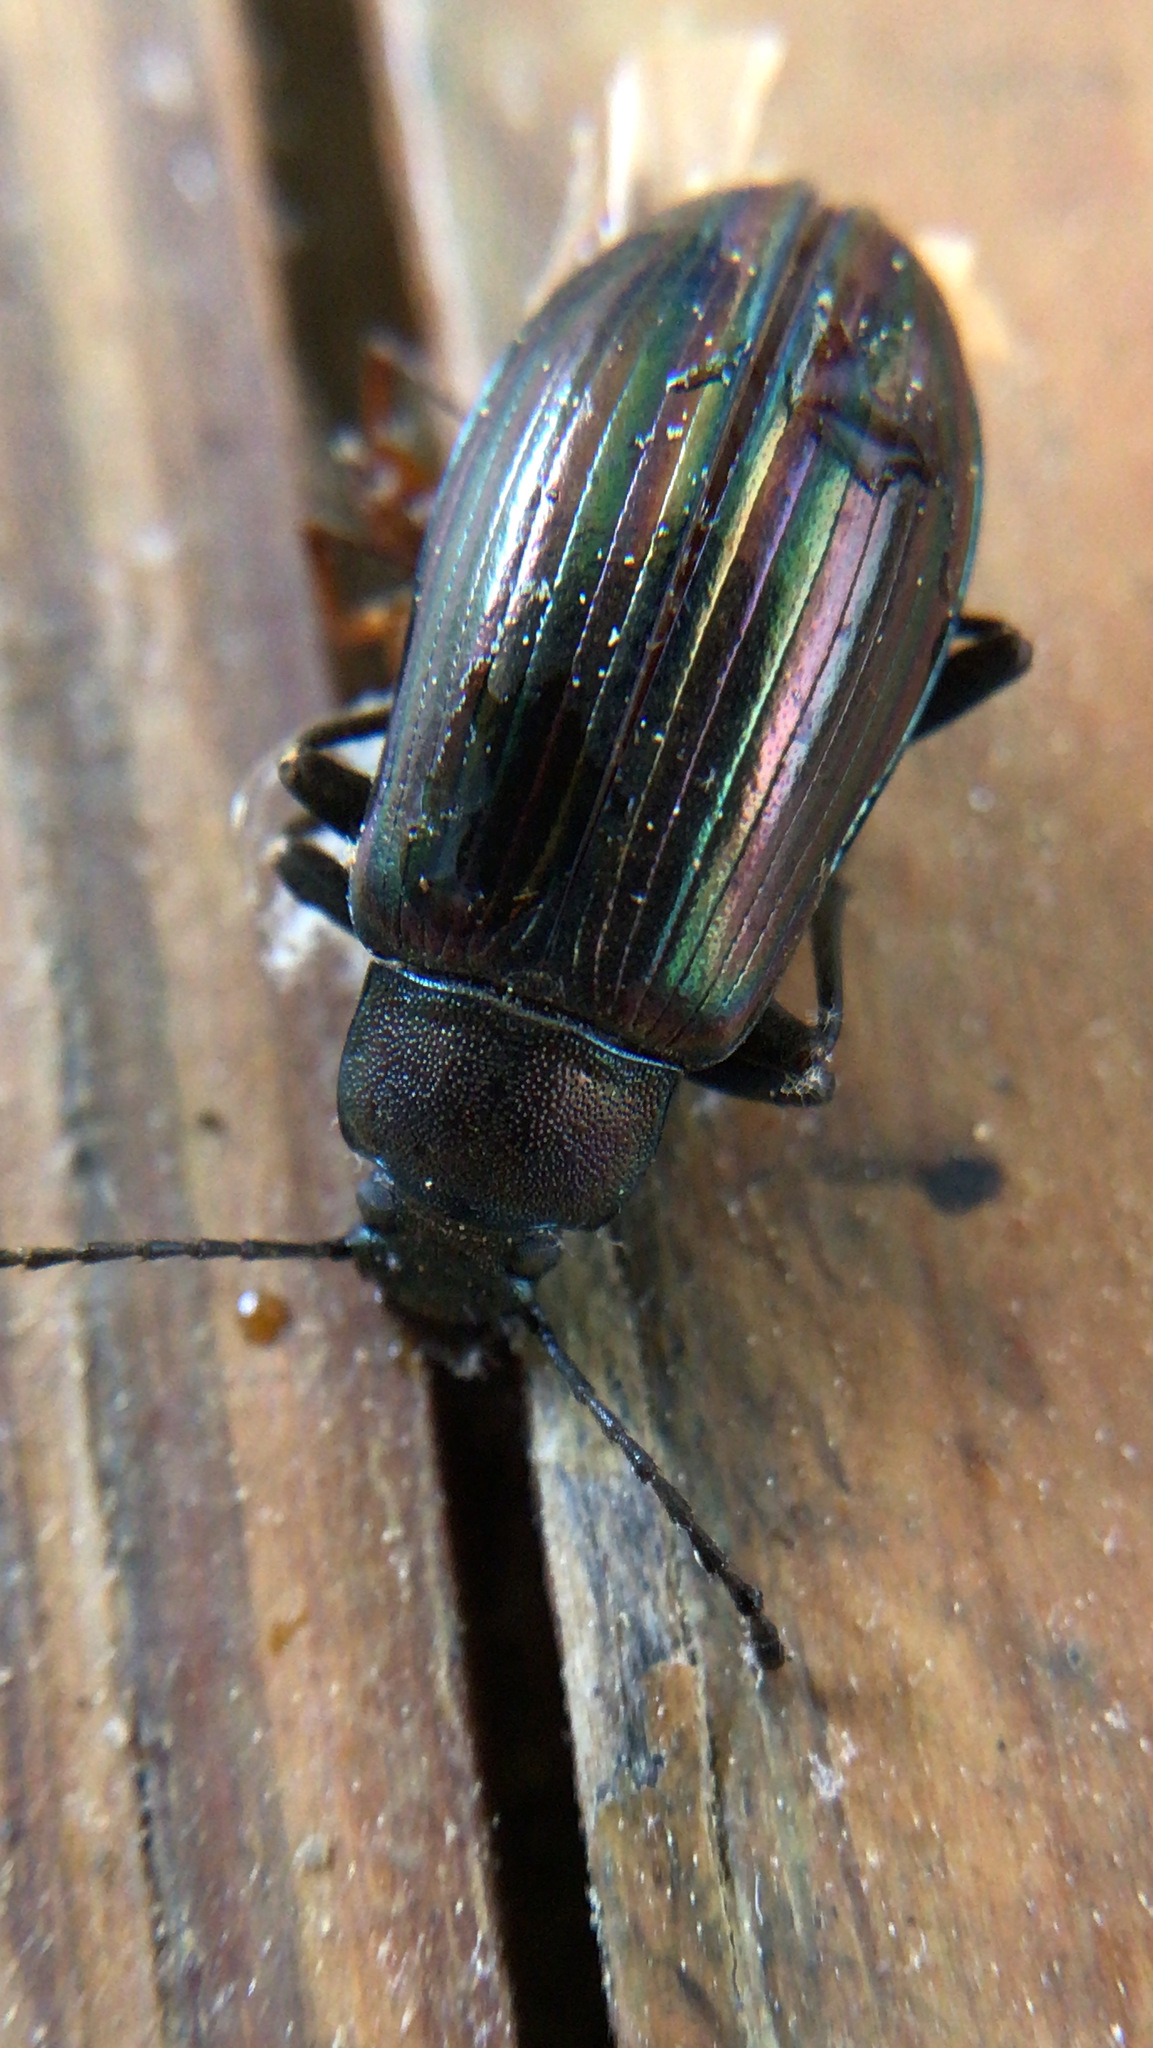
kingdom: Animalia
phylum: Arthropoda
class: Insecta
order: Coleoptera
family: Tenebrionidae
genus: Tarpela
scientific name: Tarpela micans
